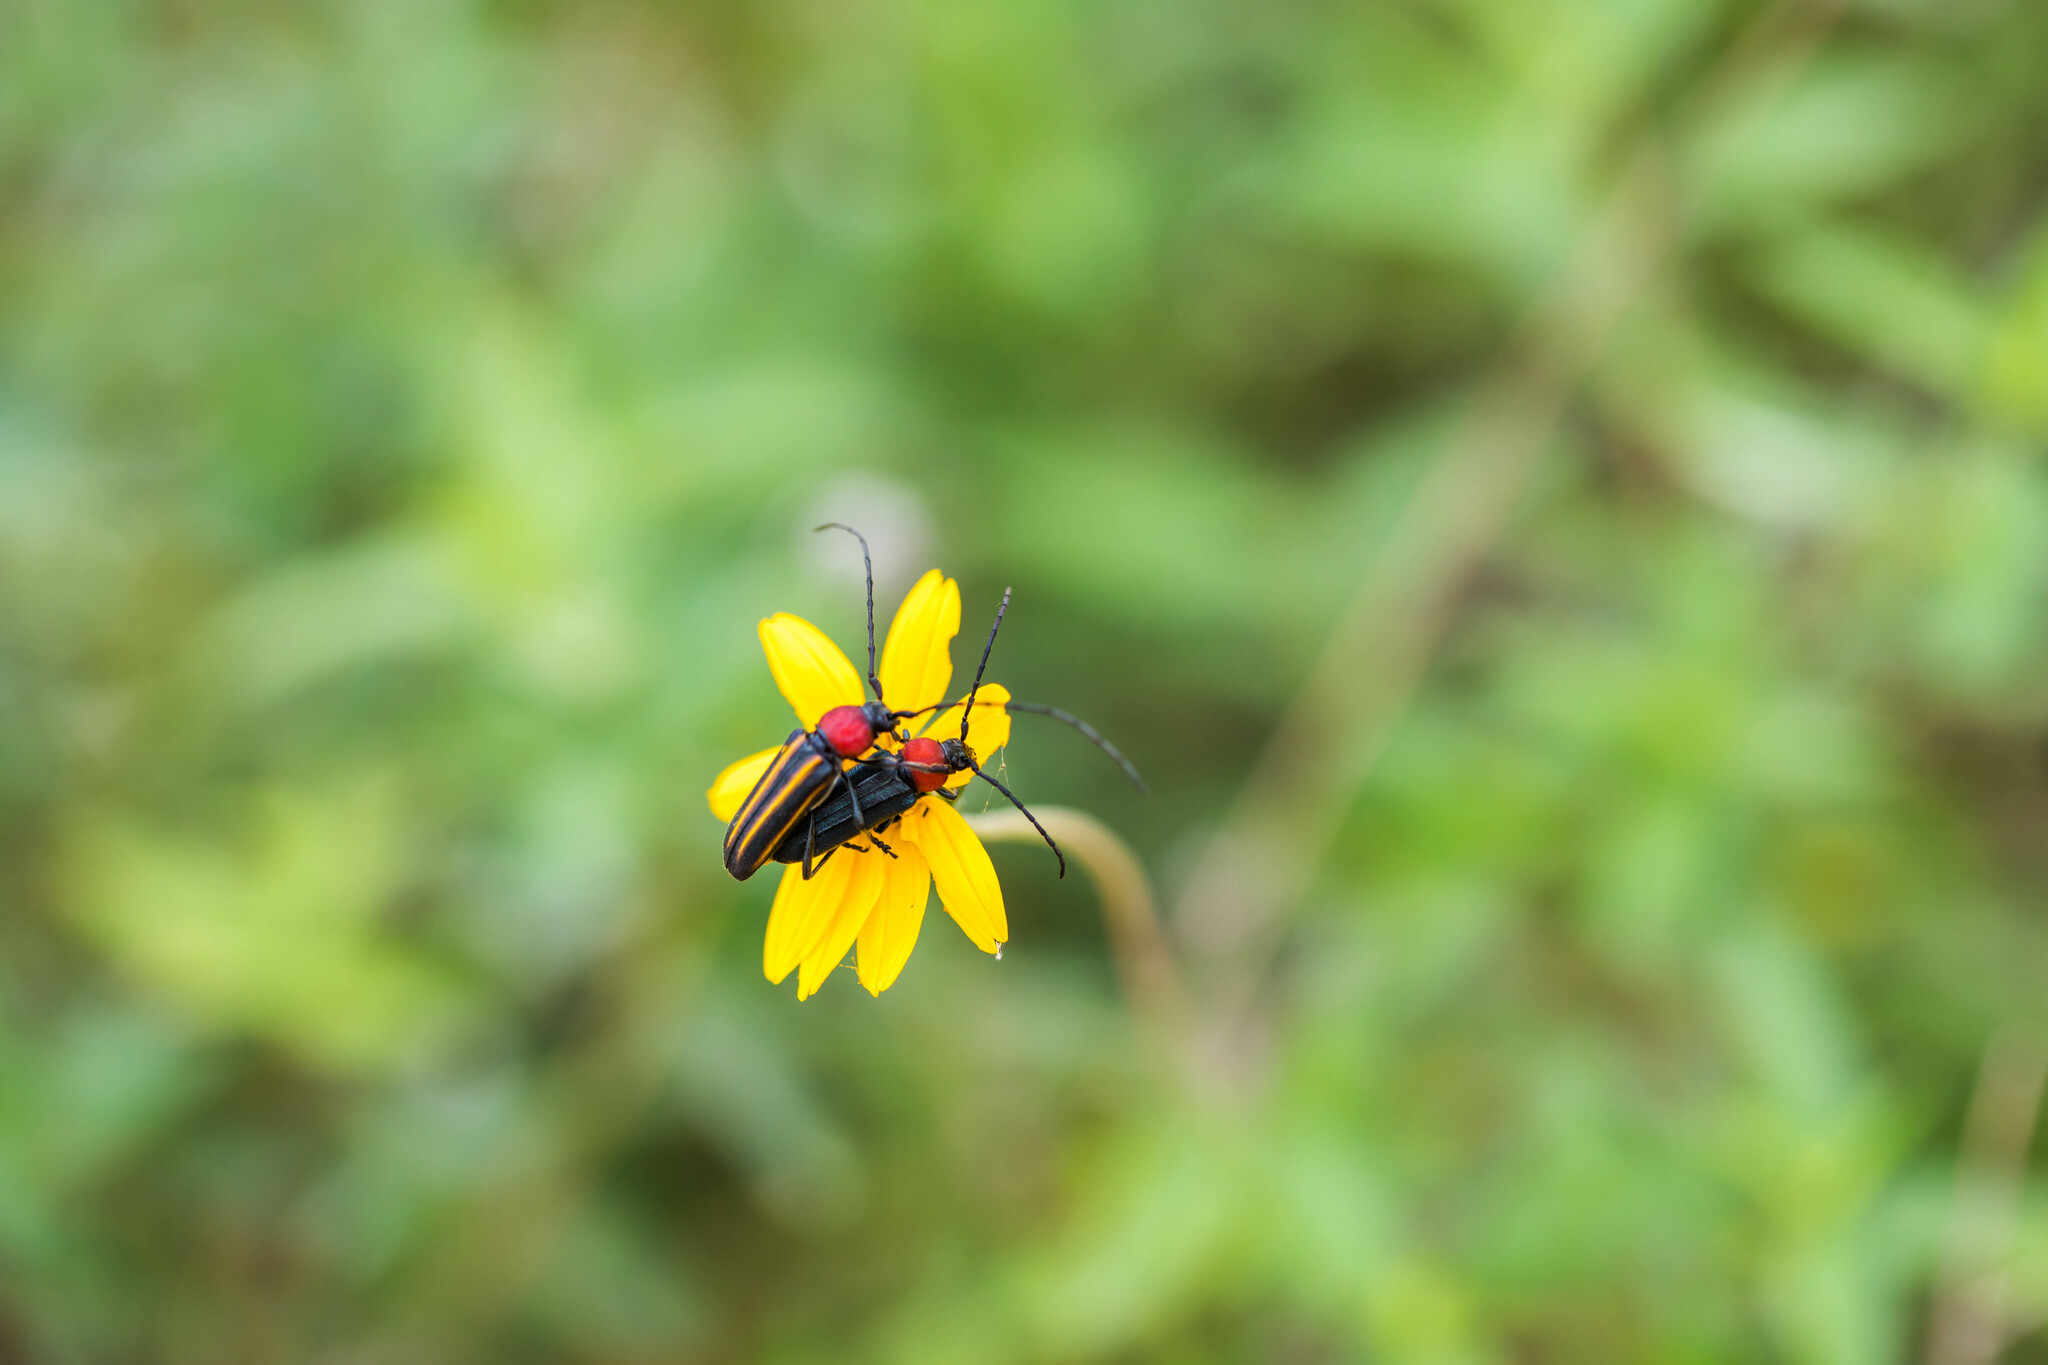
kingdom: Animalia
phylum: Arthropoda
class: Insecta
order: Coleoptera
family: Cerambycidae
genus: Mannophorus
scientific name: Mannophorus laetus
